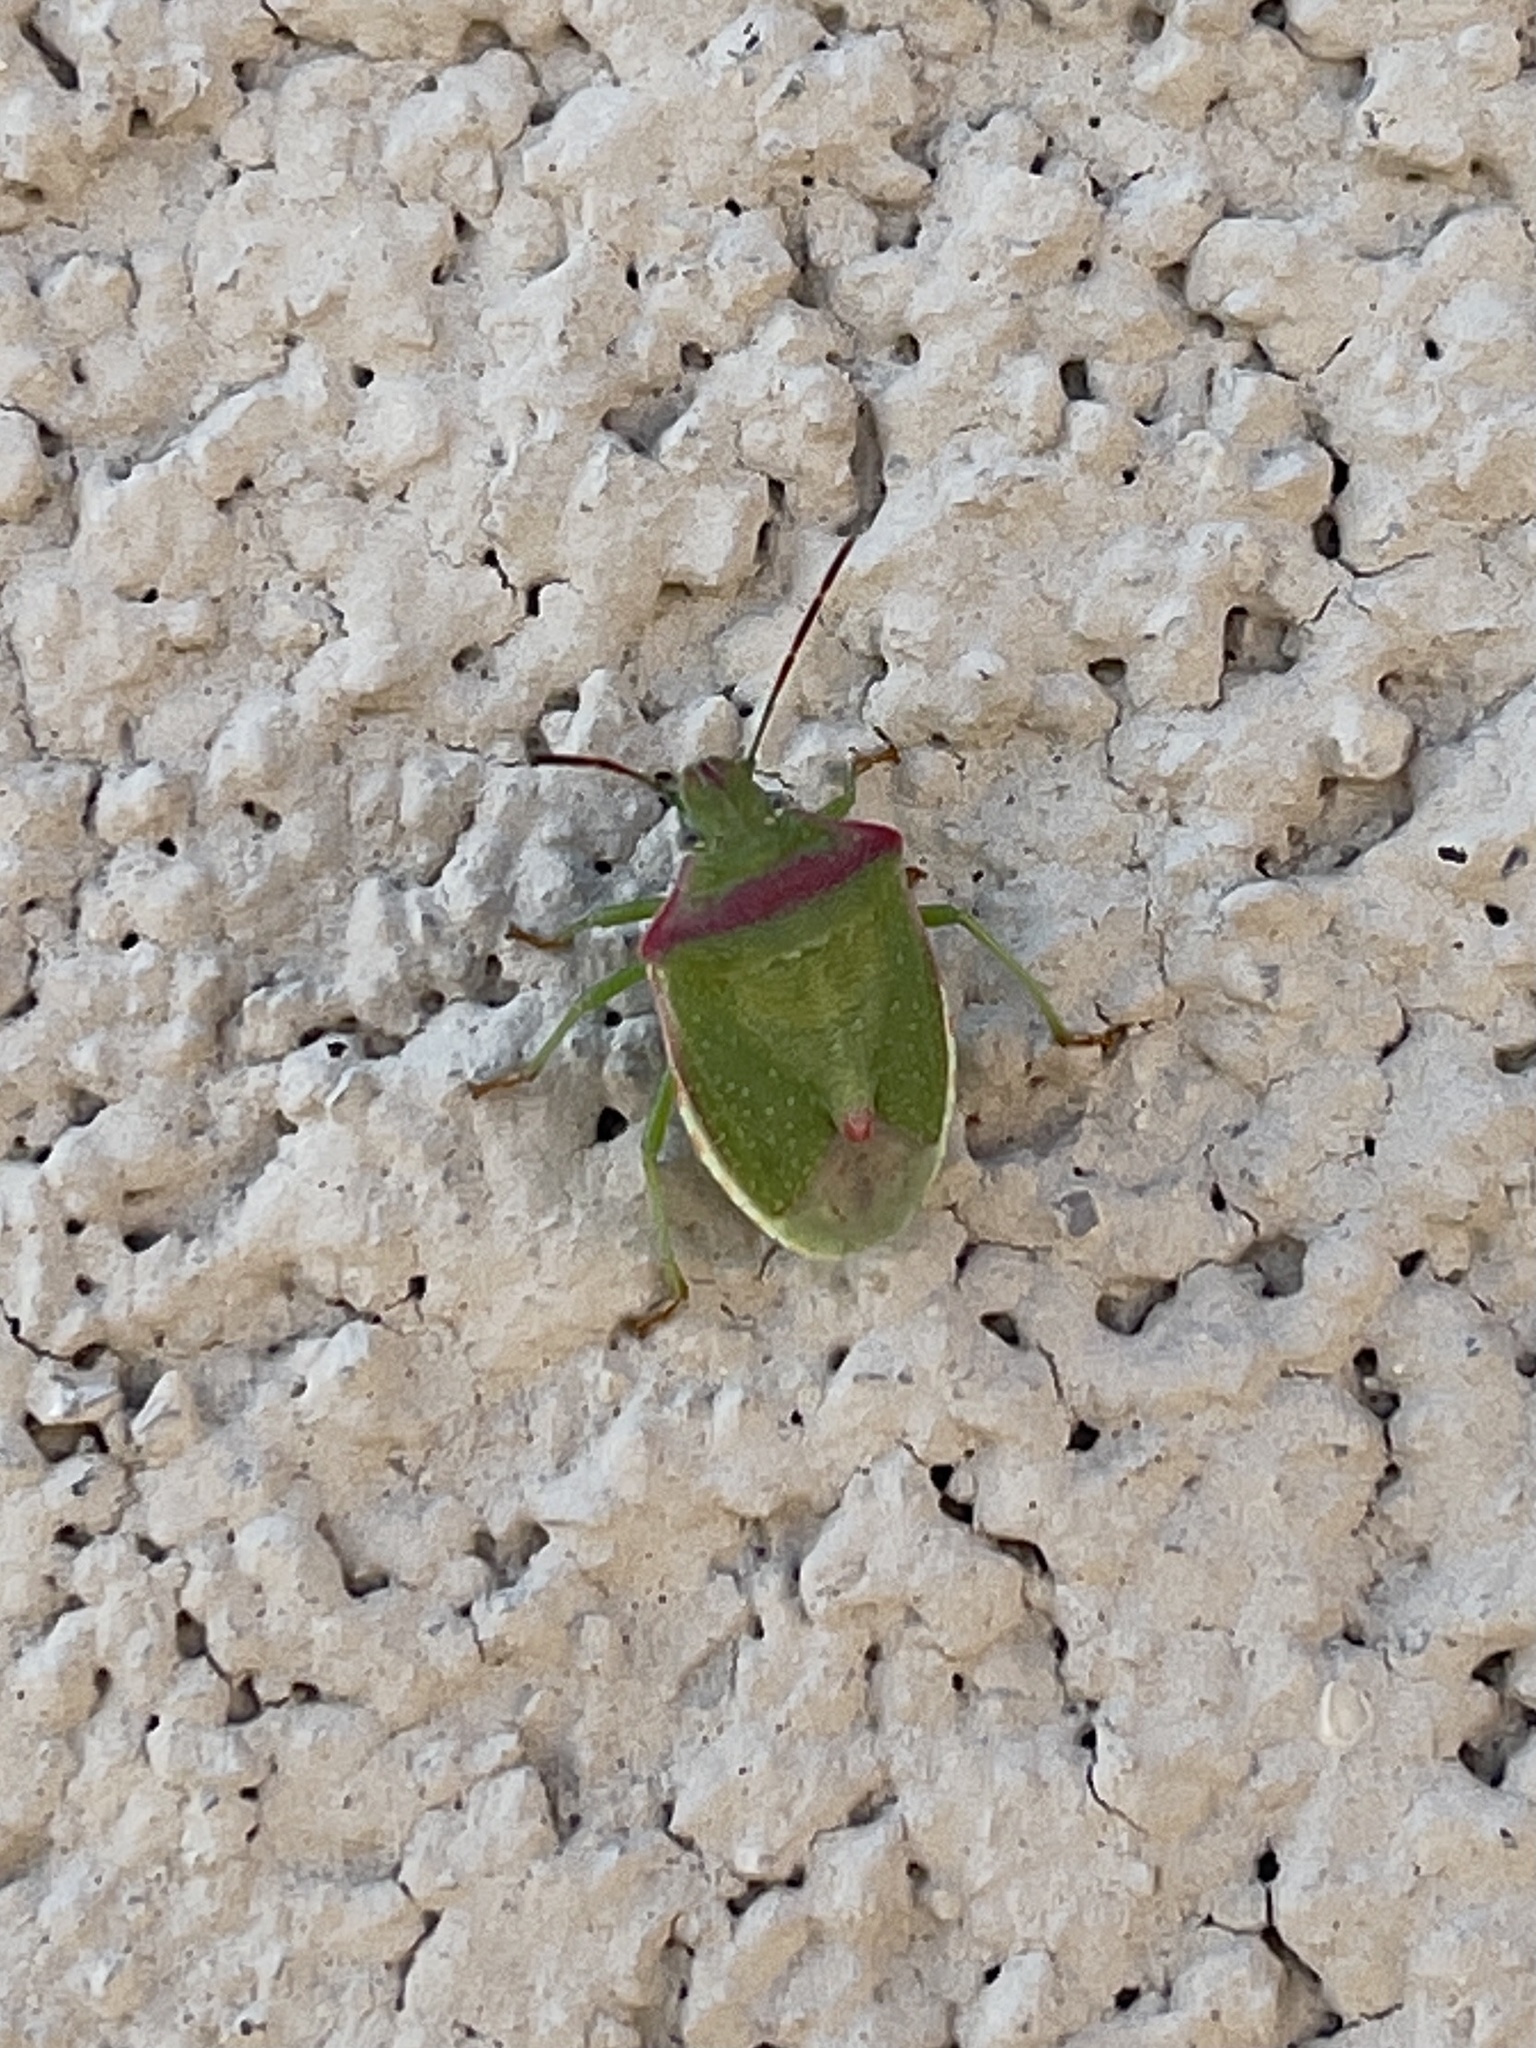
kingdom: Animalia
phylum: Arthropoda
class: Insecta
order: Hemiptera
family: Pentatomidae
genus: Thyanta
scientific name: Thyanta custator
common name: Stink bug
